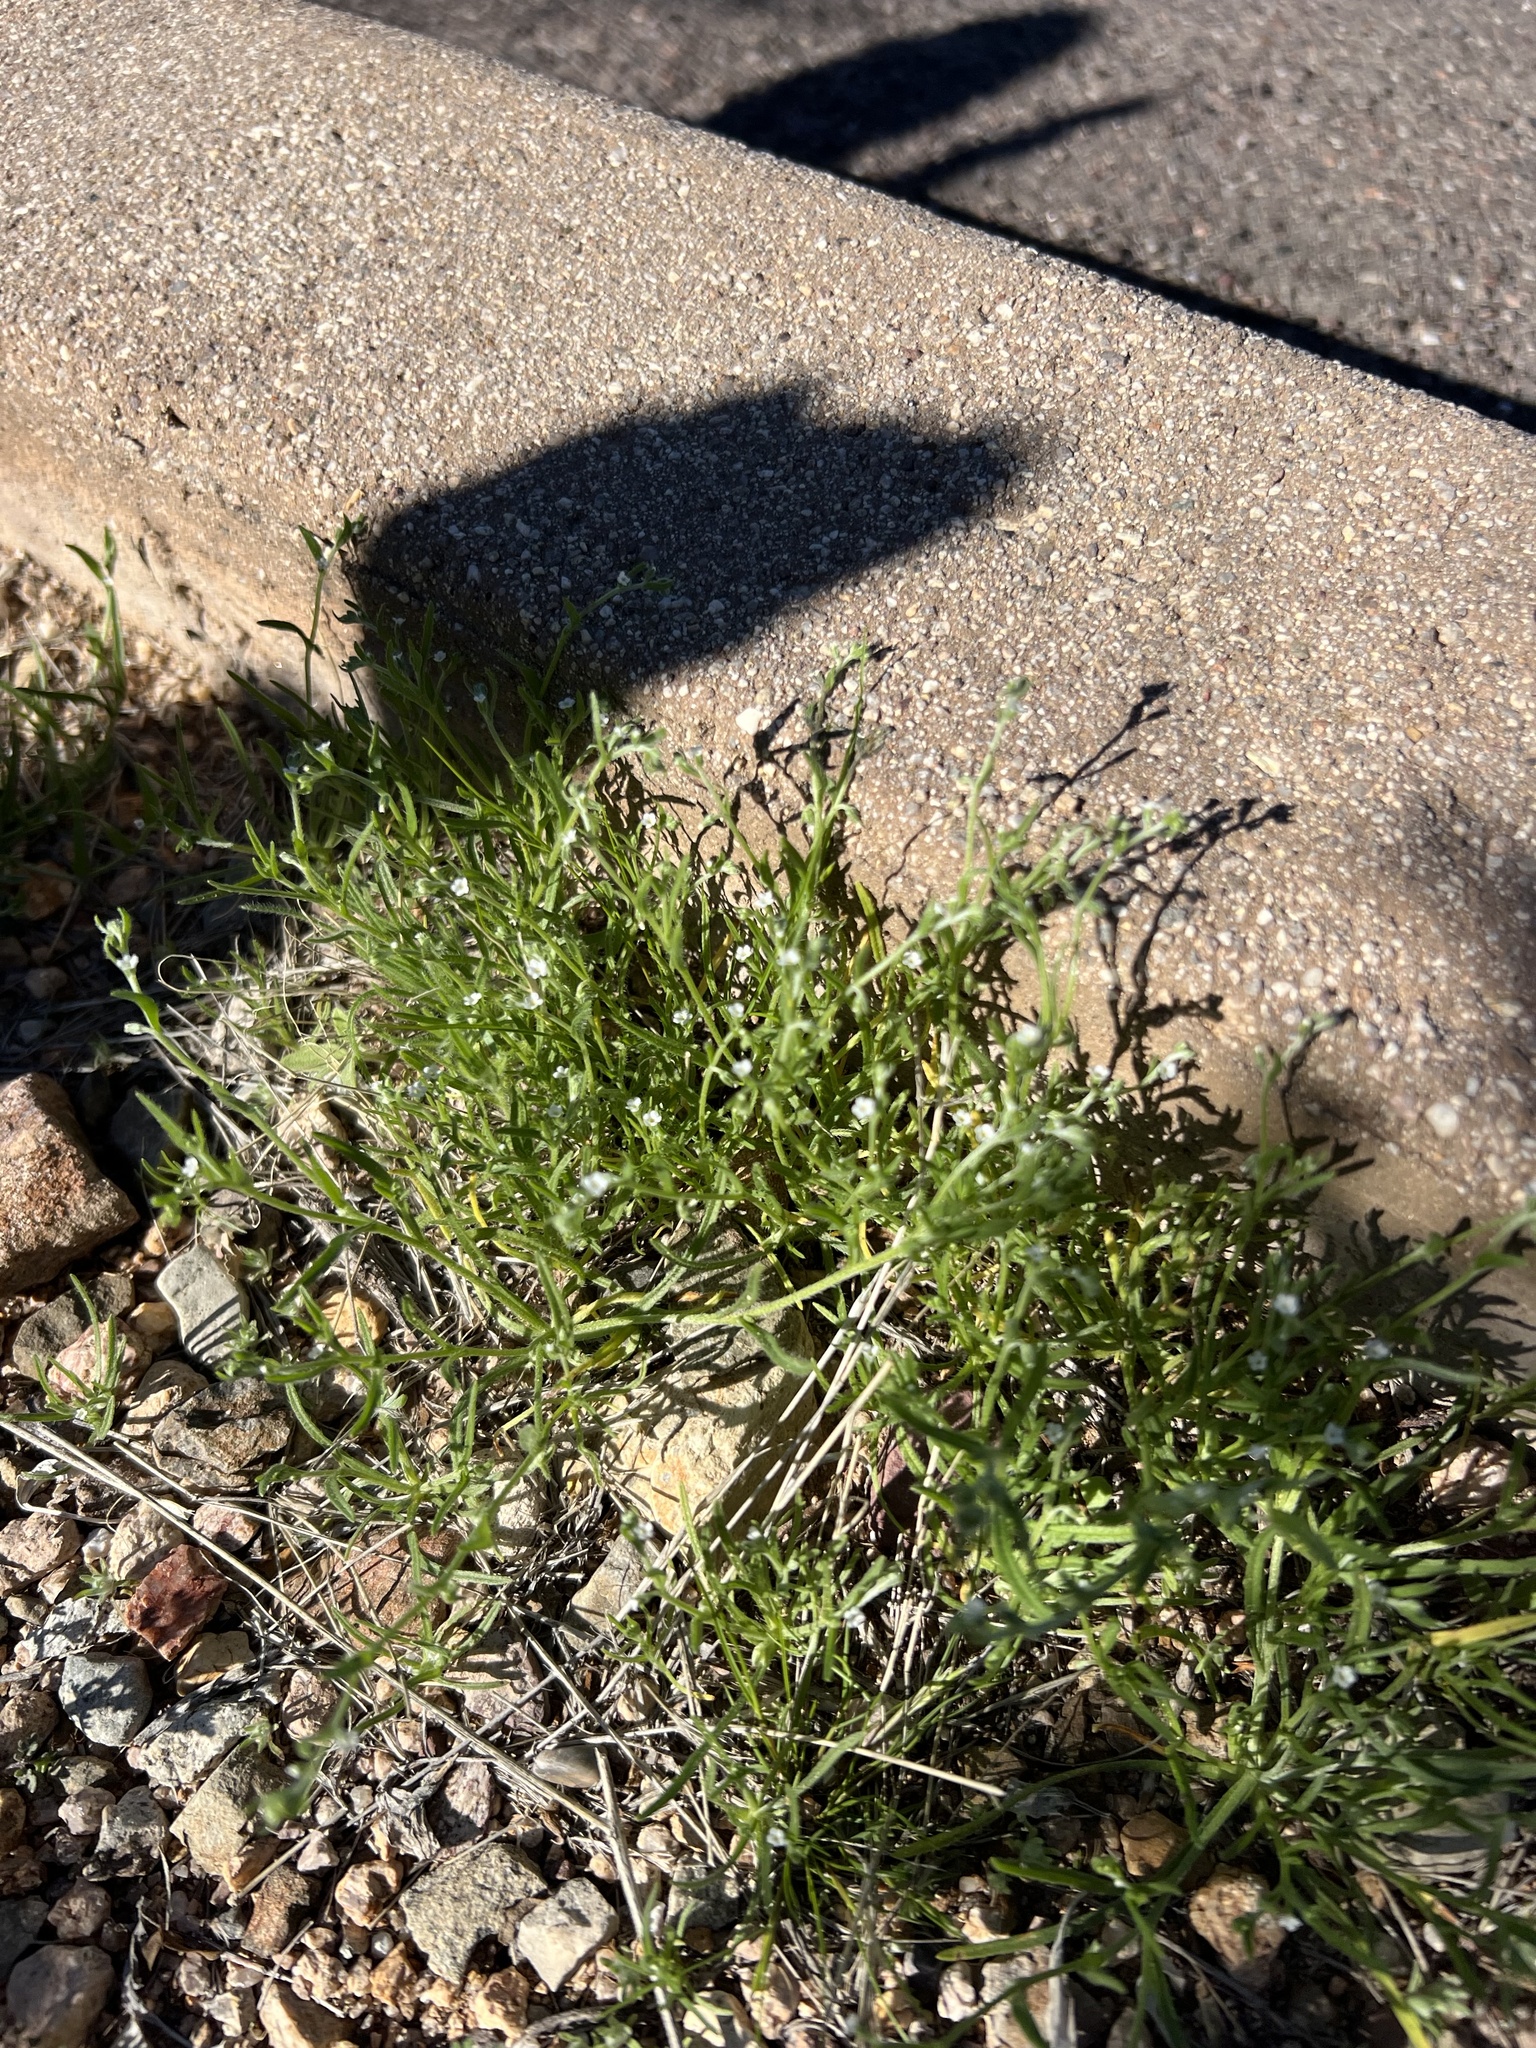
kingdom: Plantae
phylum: Tracheophyta
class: Magnoliopsida
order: Boraginales
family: Boraginaceae
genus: Pectocarya
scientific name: Pectocarya recurvata
